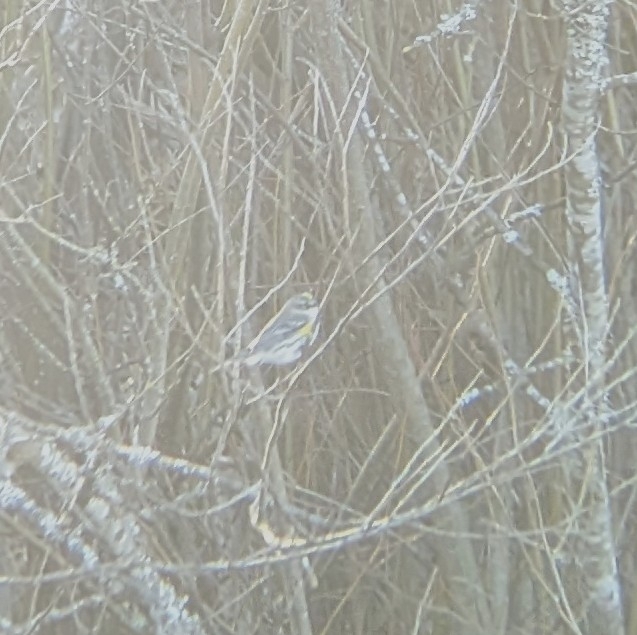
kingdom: Animalia
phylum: Chordata
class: Aves
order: Passeriformes
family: Parulidae
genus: Setophaga
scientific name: Setophaga coronata
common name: Myrtle warbler
